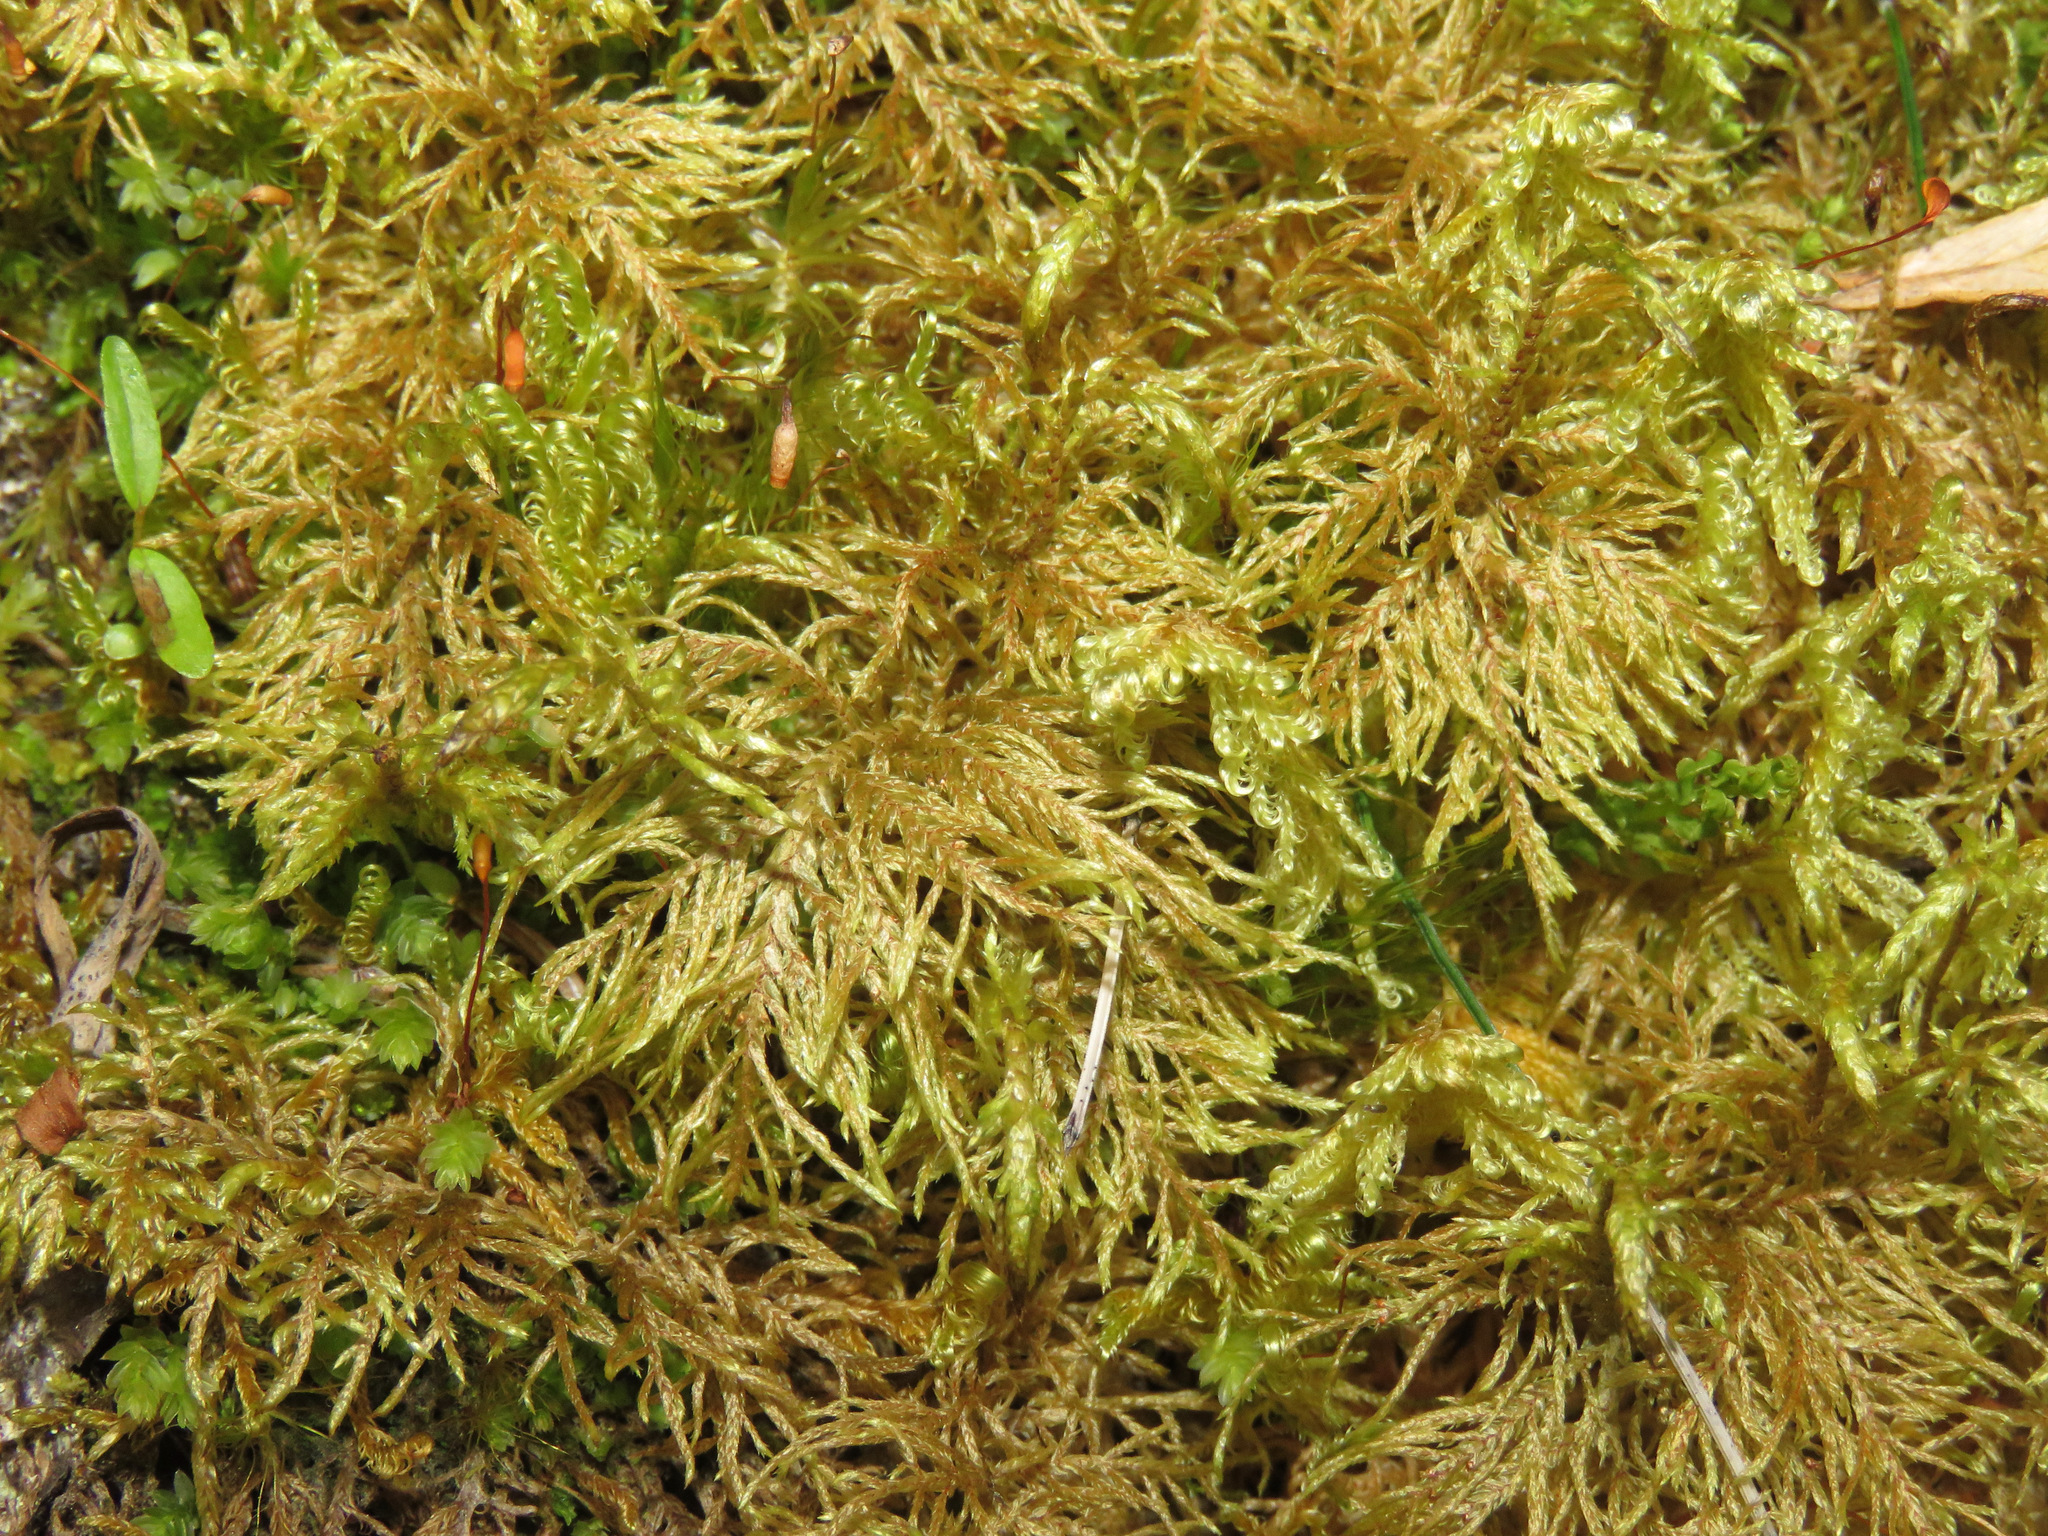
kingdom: Plantae
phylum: Bryophyta
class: Bryopsida
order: Hypnales
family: Hylocomiaceae
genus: Hylocomium
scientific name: Hylocomium splendens
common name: Stairstep moss
